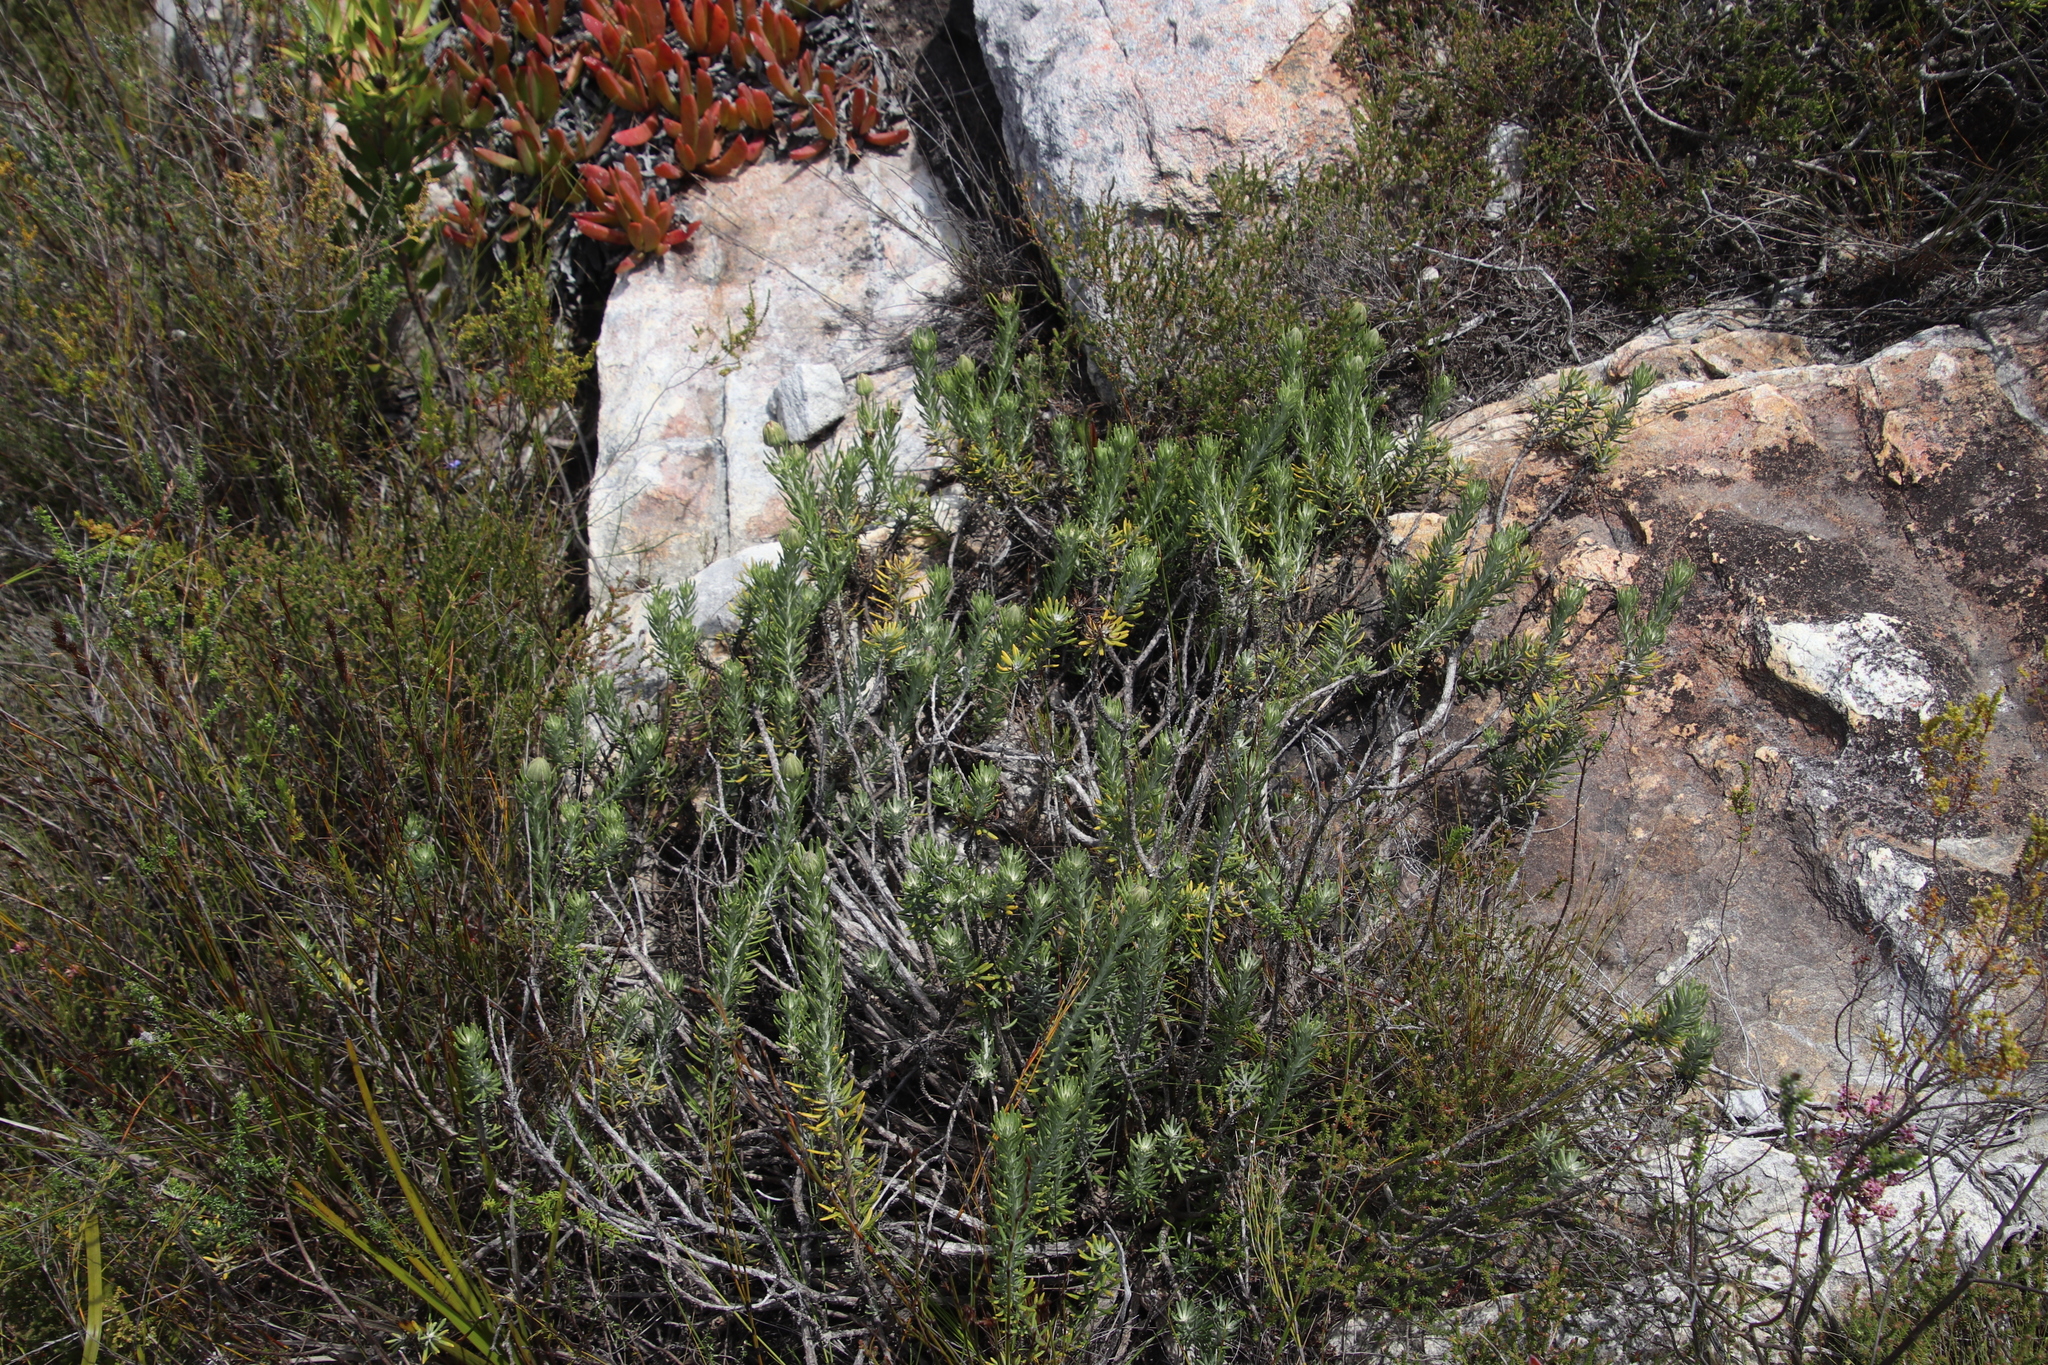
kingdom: Plantae
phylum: Tracheophyta
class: Magnoliopsida
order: Asterales
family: Asteraceae
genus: Heterolepis
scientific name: Heterolepis aliena
